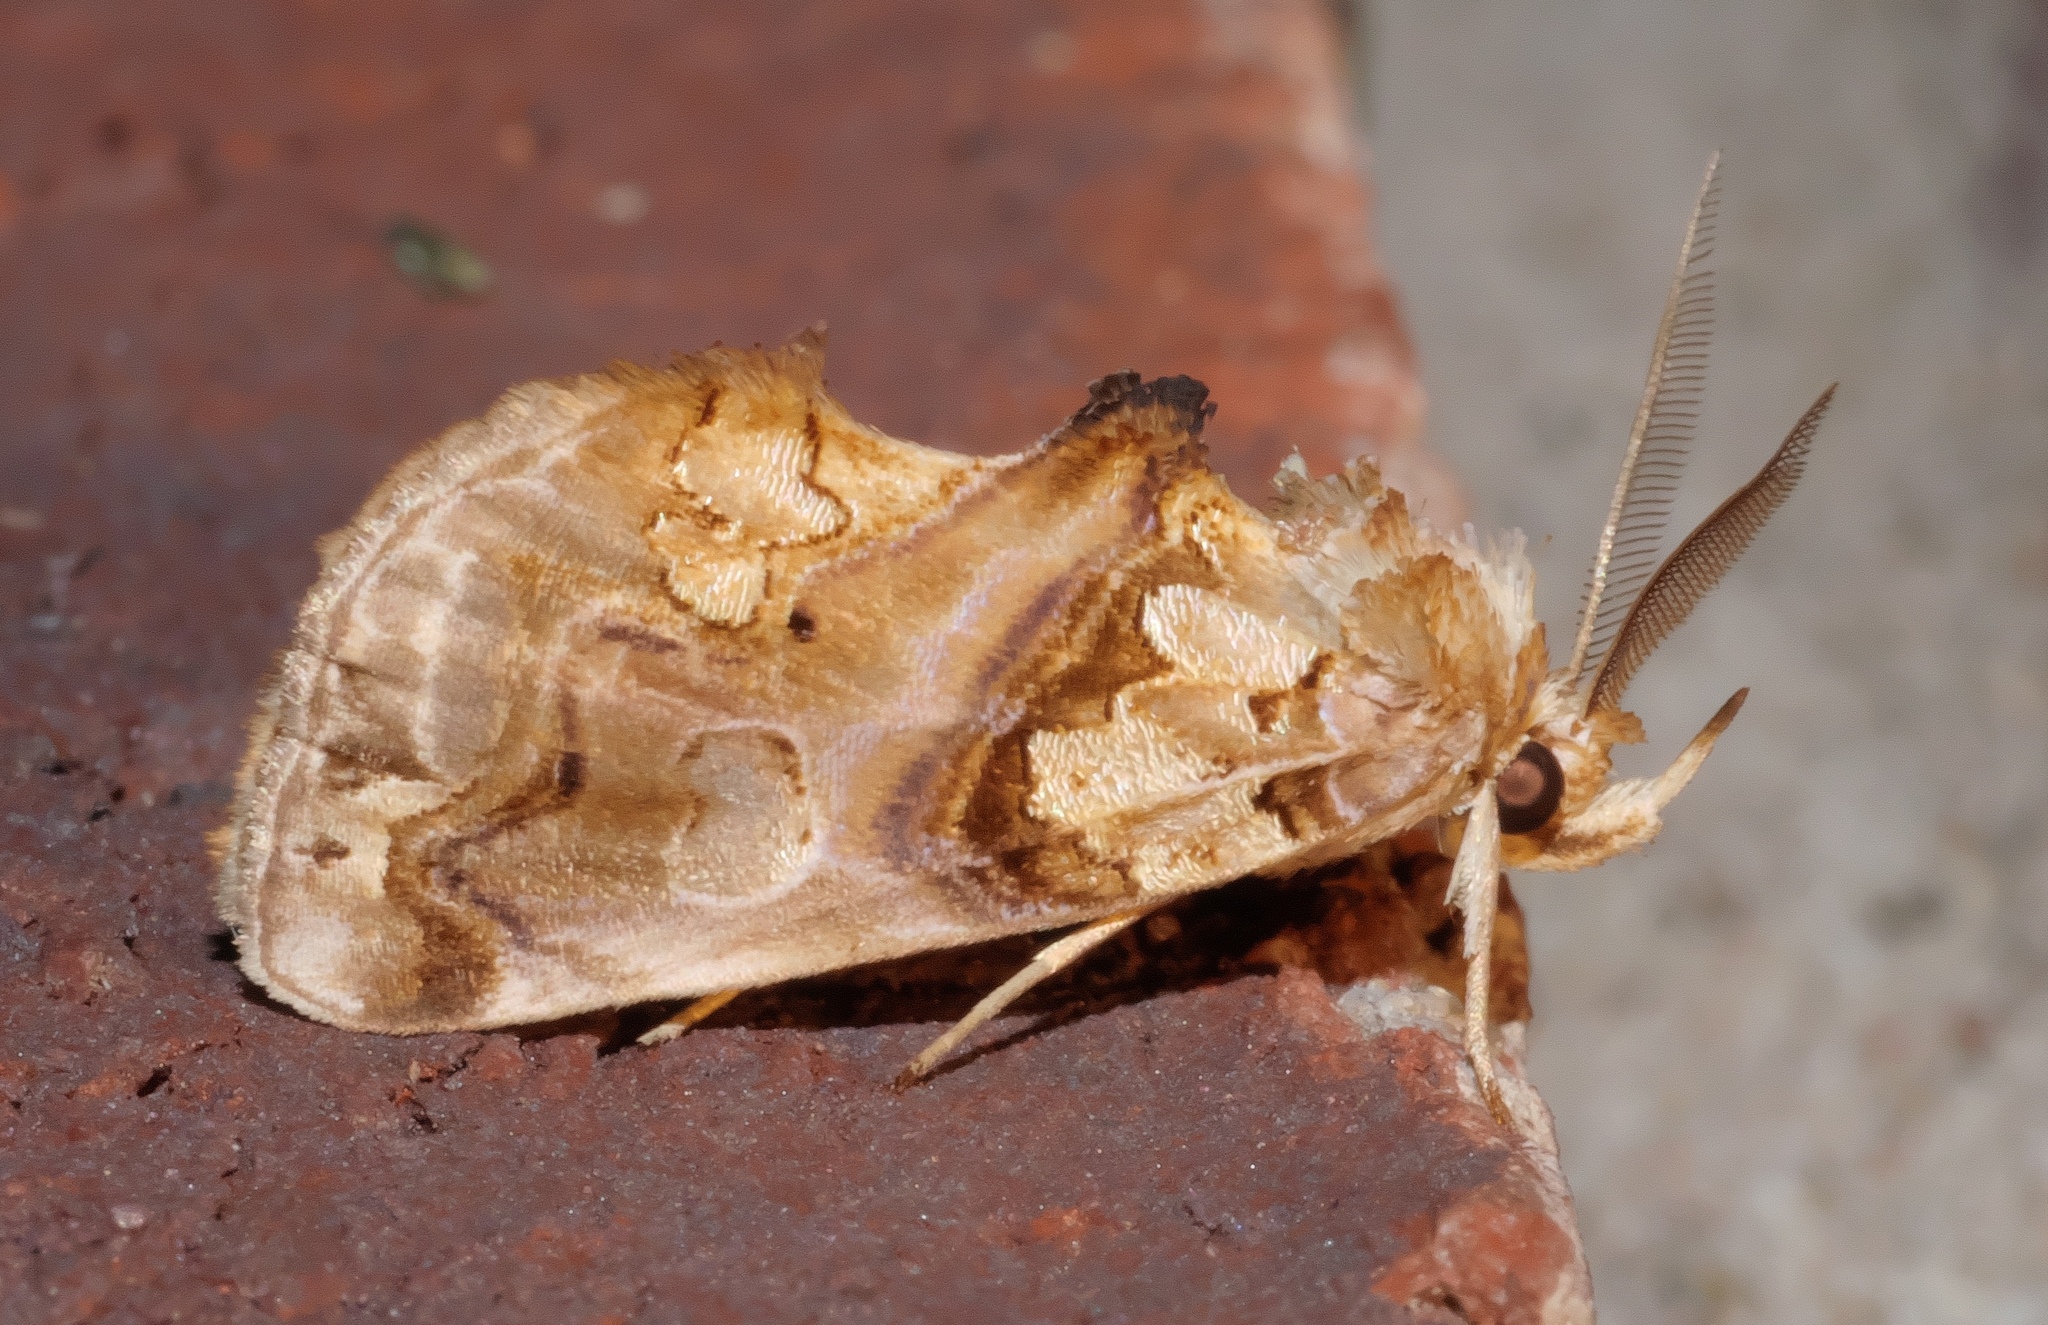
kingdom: Animalia
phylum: Arthropoda
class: Insecta
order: Lepidoptera
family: Erebidae
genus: Plusiodonta
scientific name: Plusiodonta compressipalpis
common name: Moonseed moth
